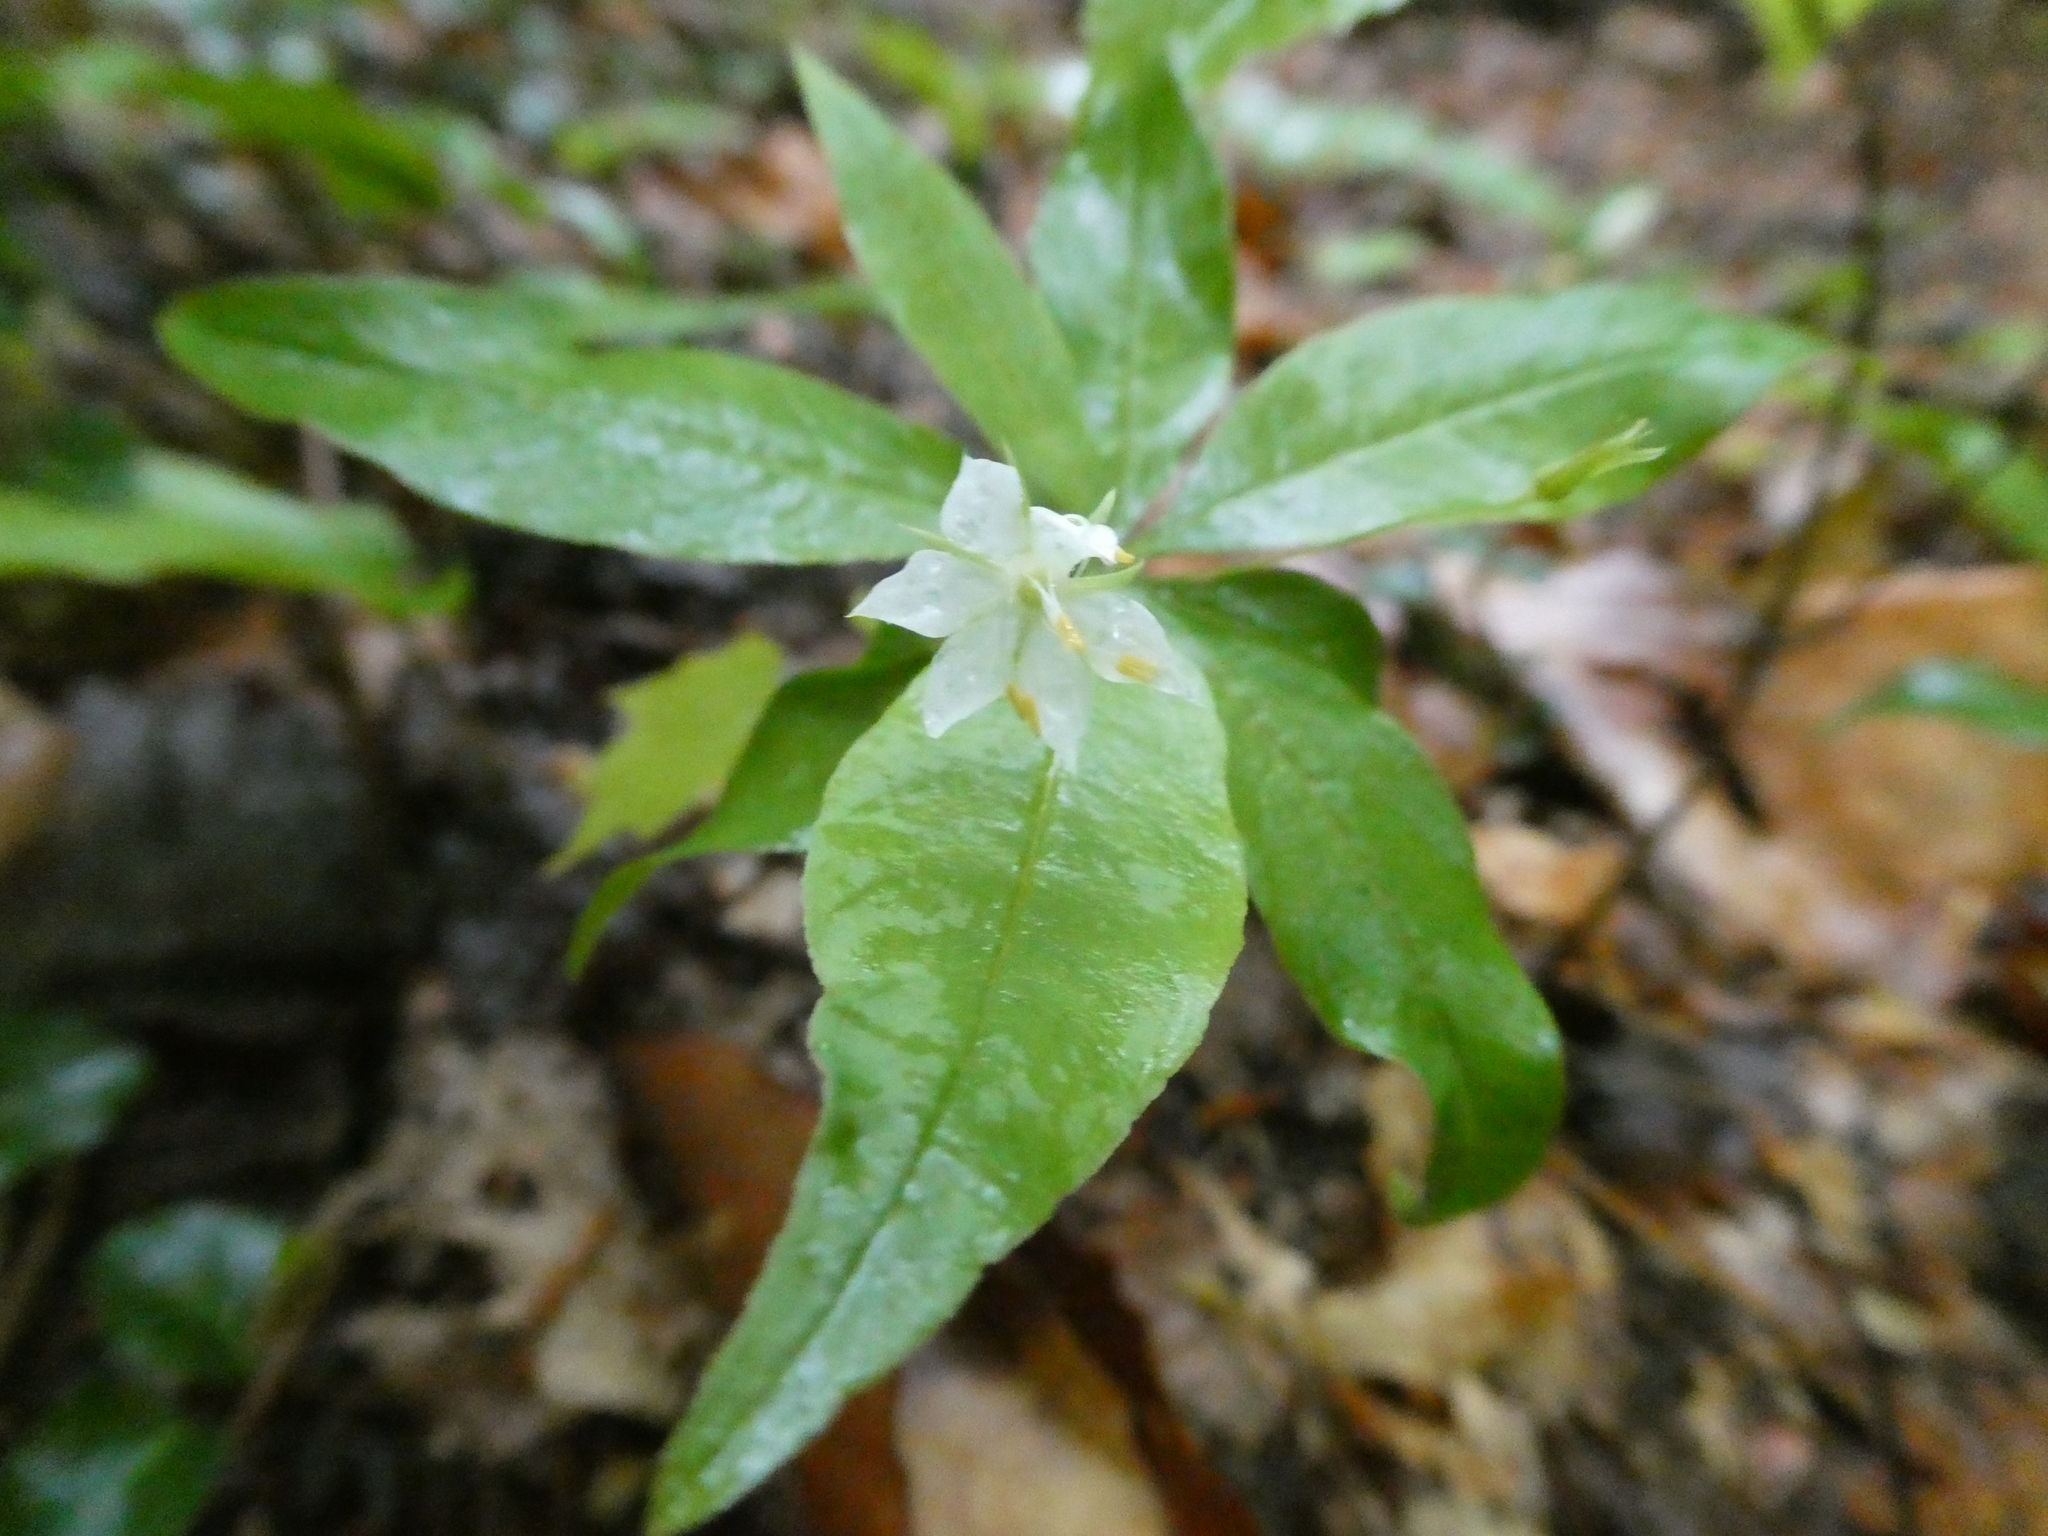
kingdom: Plantae
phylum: Tracheophyta
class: Magnoliopsida
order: Ericales
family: Primulaceae
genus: Lysimachia
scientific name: Lysimachia borealis
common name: American starflower
